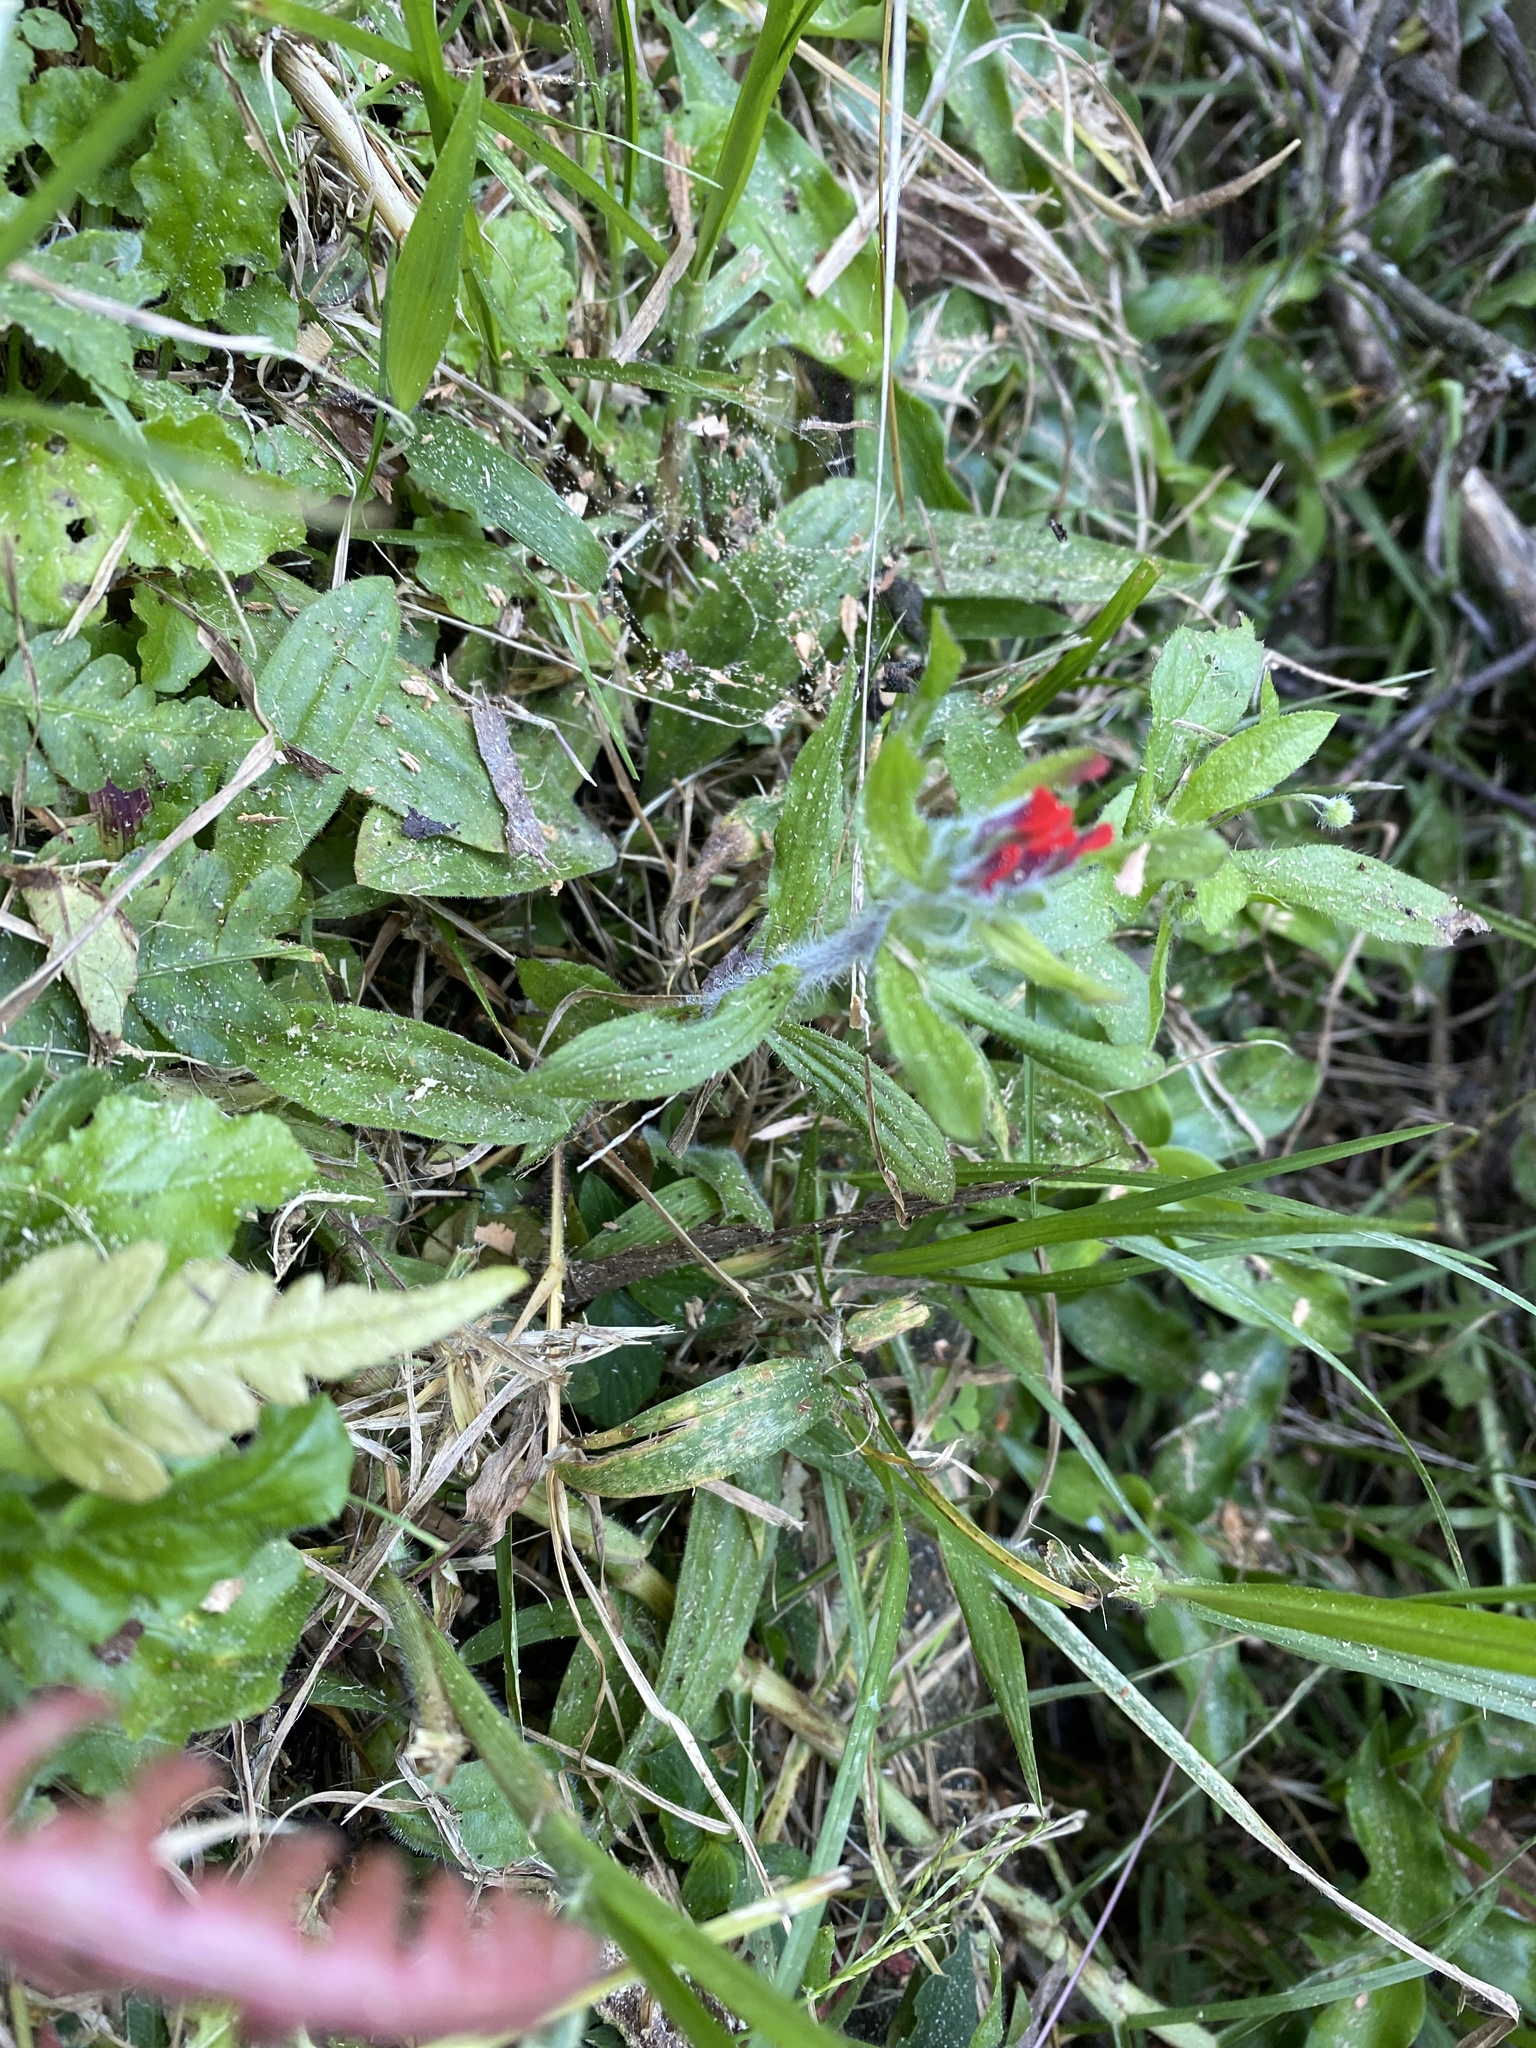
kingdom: Plantae
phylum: Tracheophyta
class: Magnoliopsida
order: Lamiales
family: Orobanchaceae
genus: Castilleja
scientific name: Castilleja arvensis
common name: Indian paintbrush
